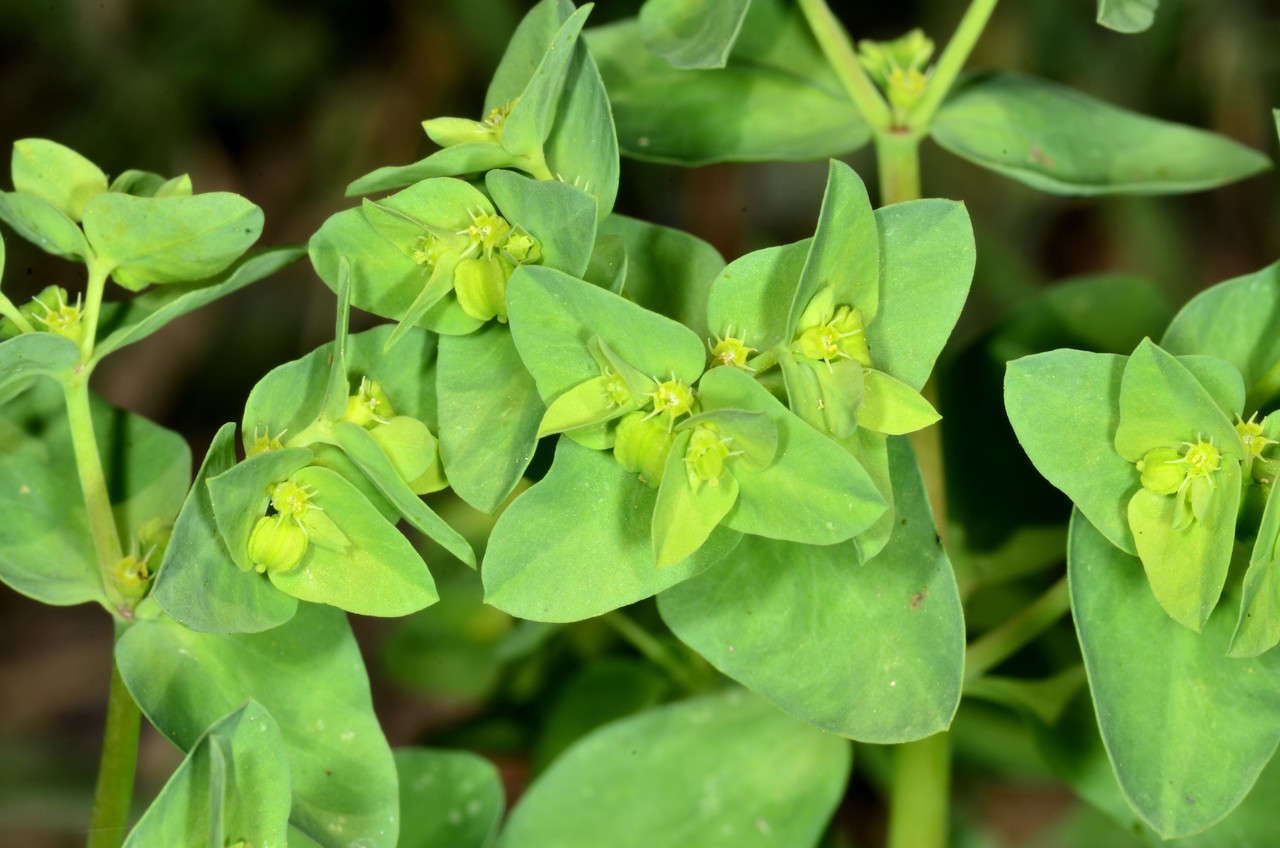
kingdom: Plantae
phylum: Tracheophyta
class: Magnoliopsida
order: Malpighiales
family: Euphorbiaceae
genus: Euphorbia
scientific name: Euphorbia peplus
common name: Petty spurge
